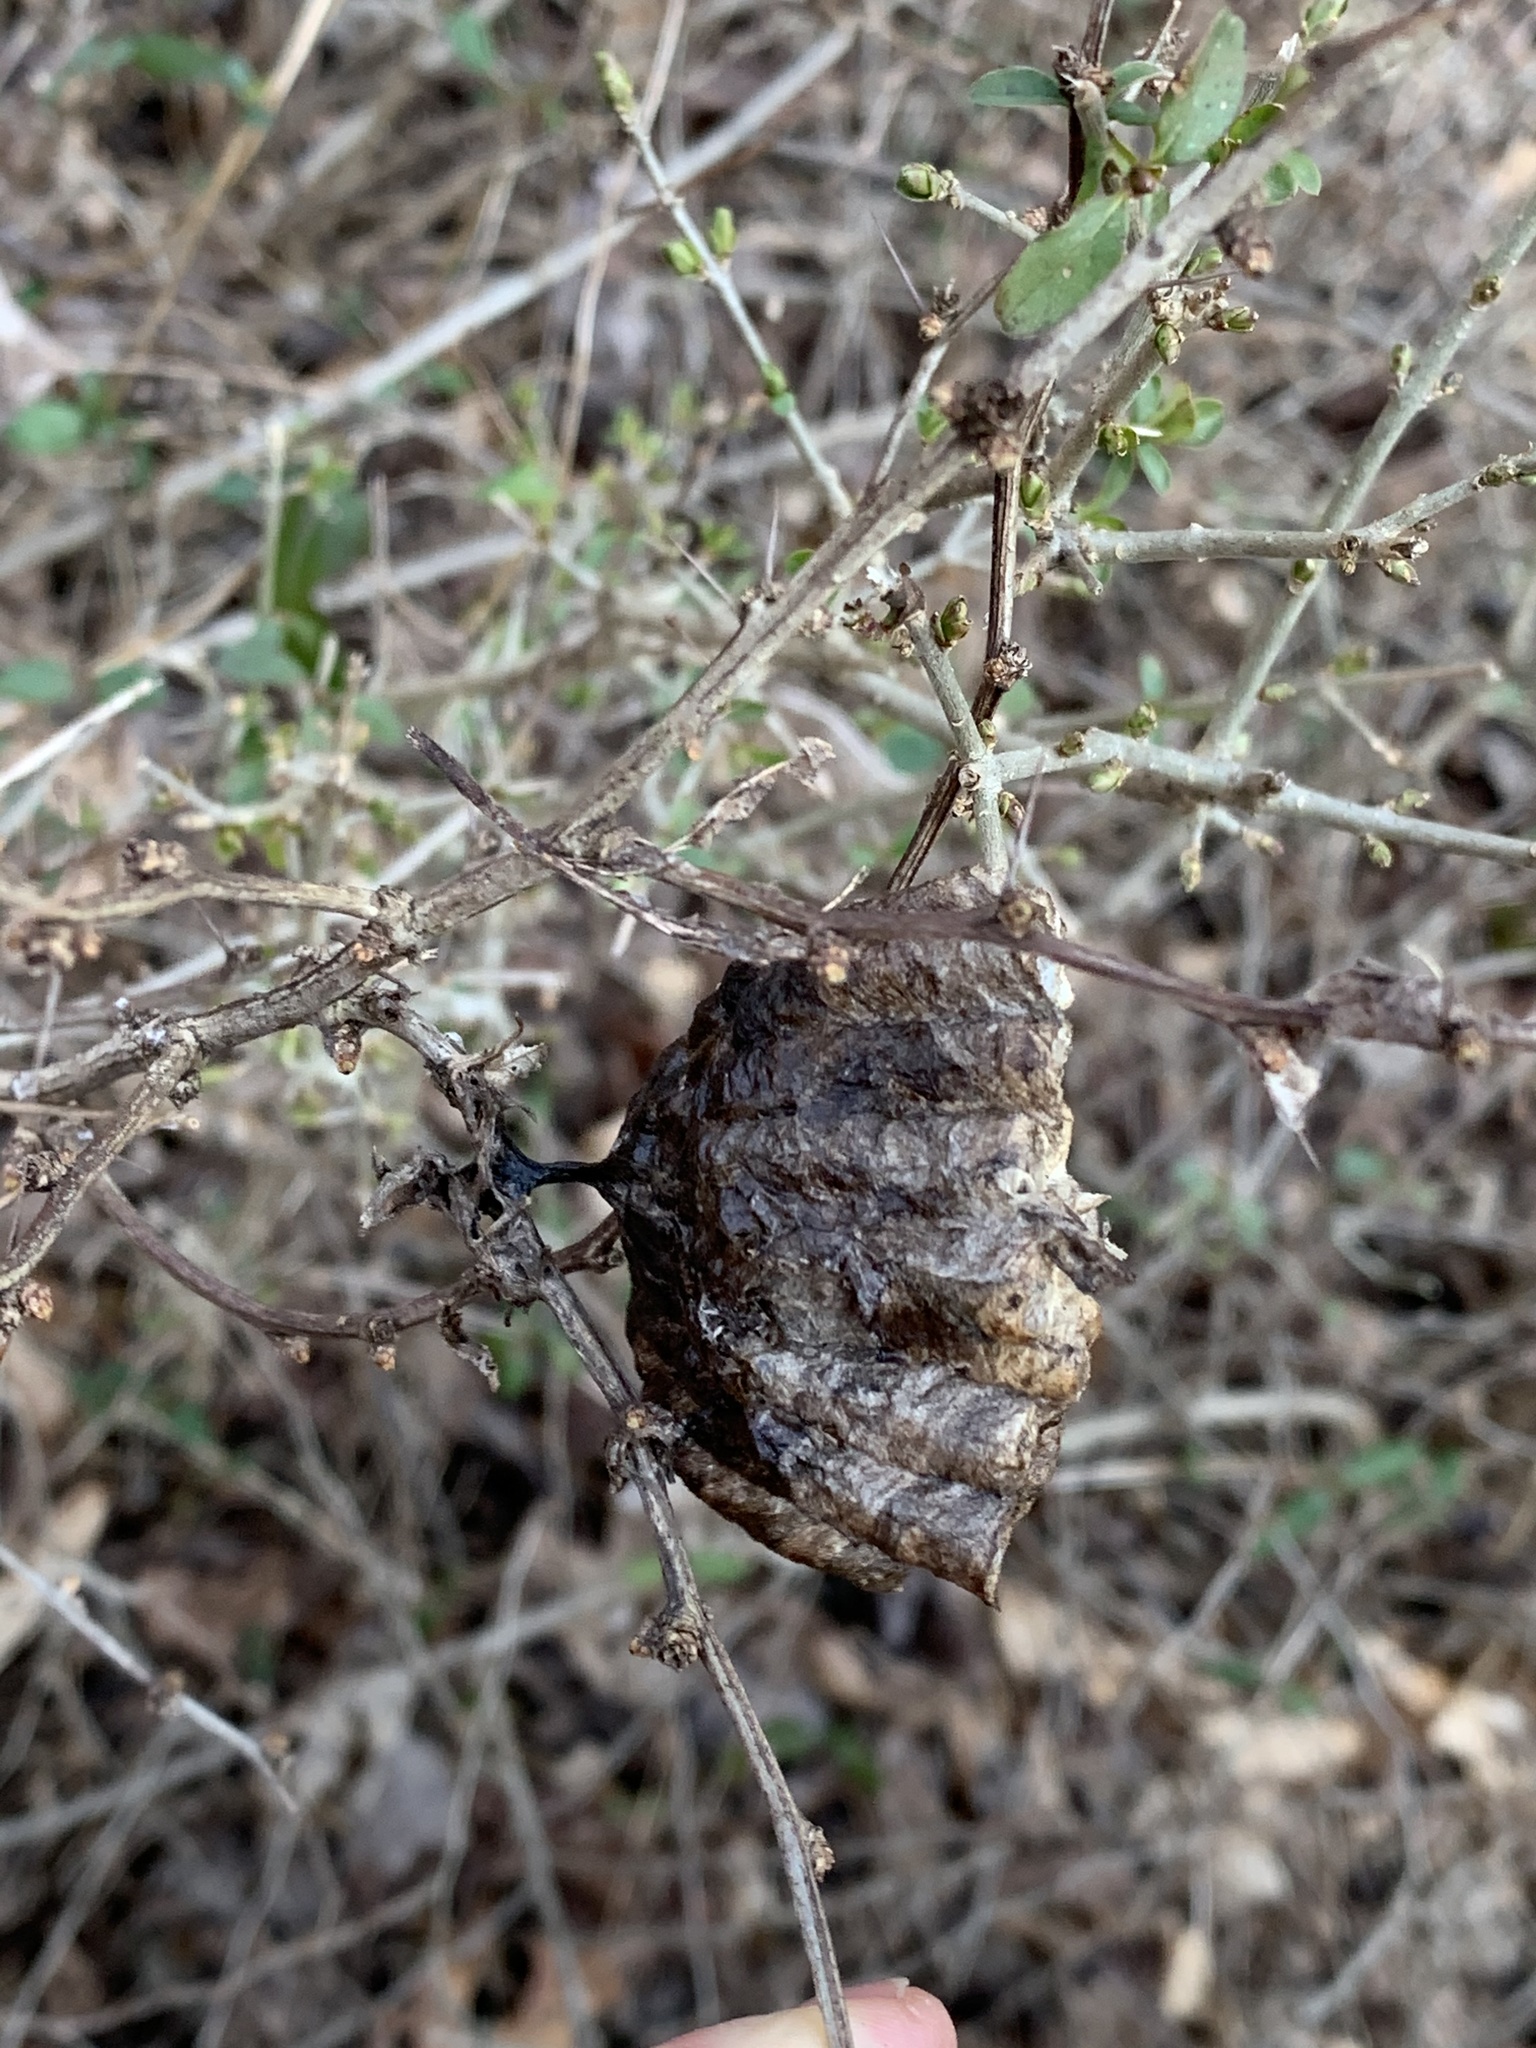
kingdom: Animalia
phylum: Arthropoda
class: Insecta
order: Hymenoptera
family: Eumenidae
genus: Polistes
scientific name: Polistes
